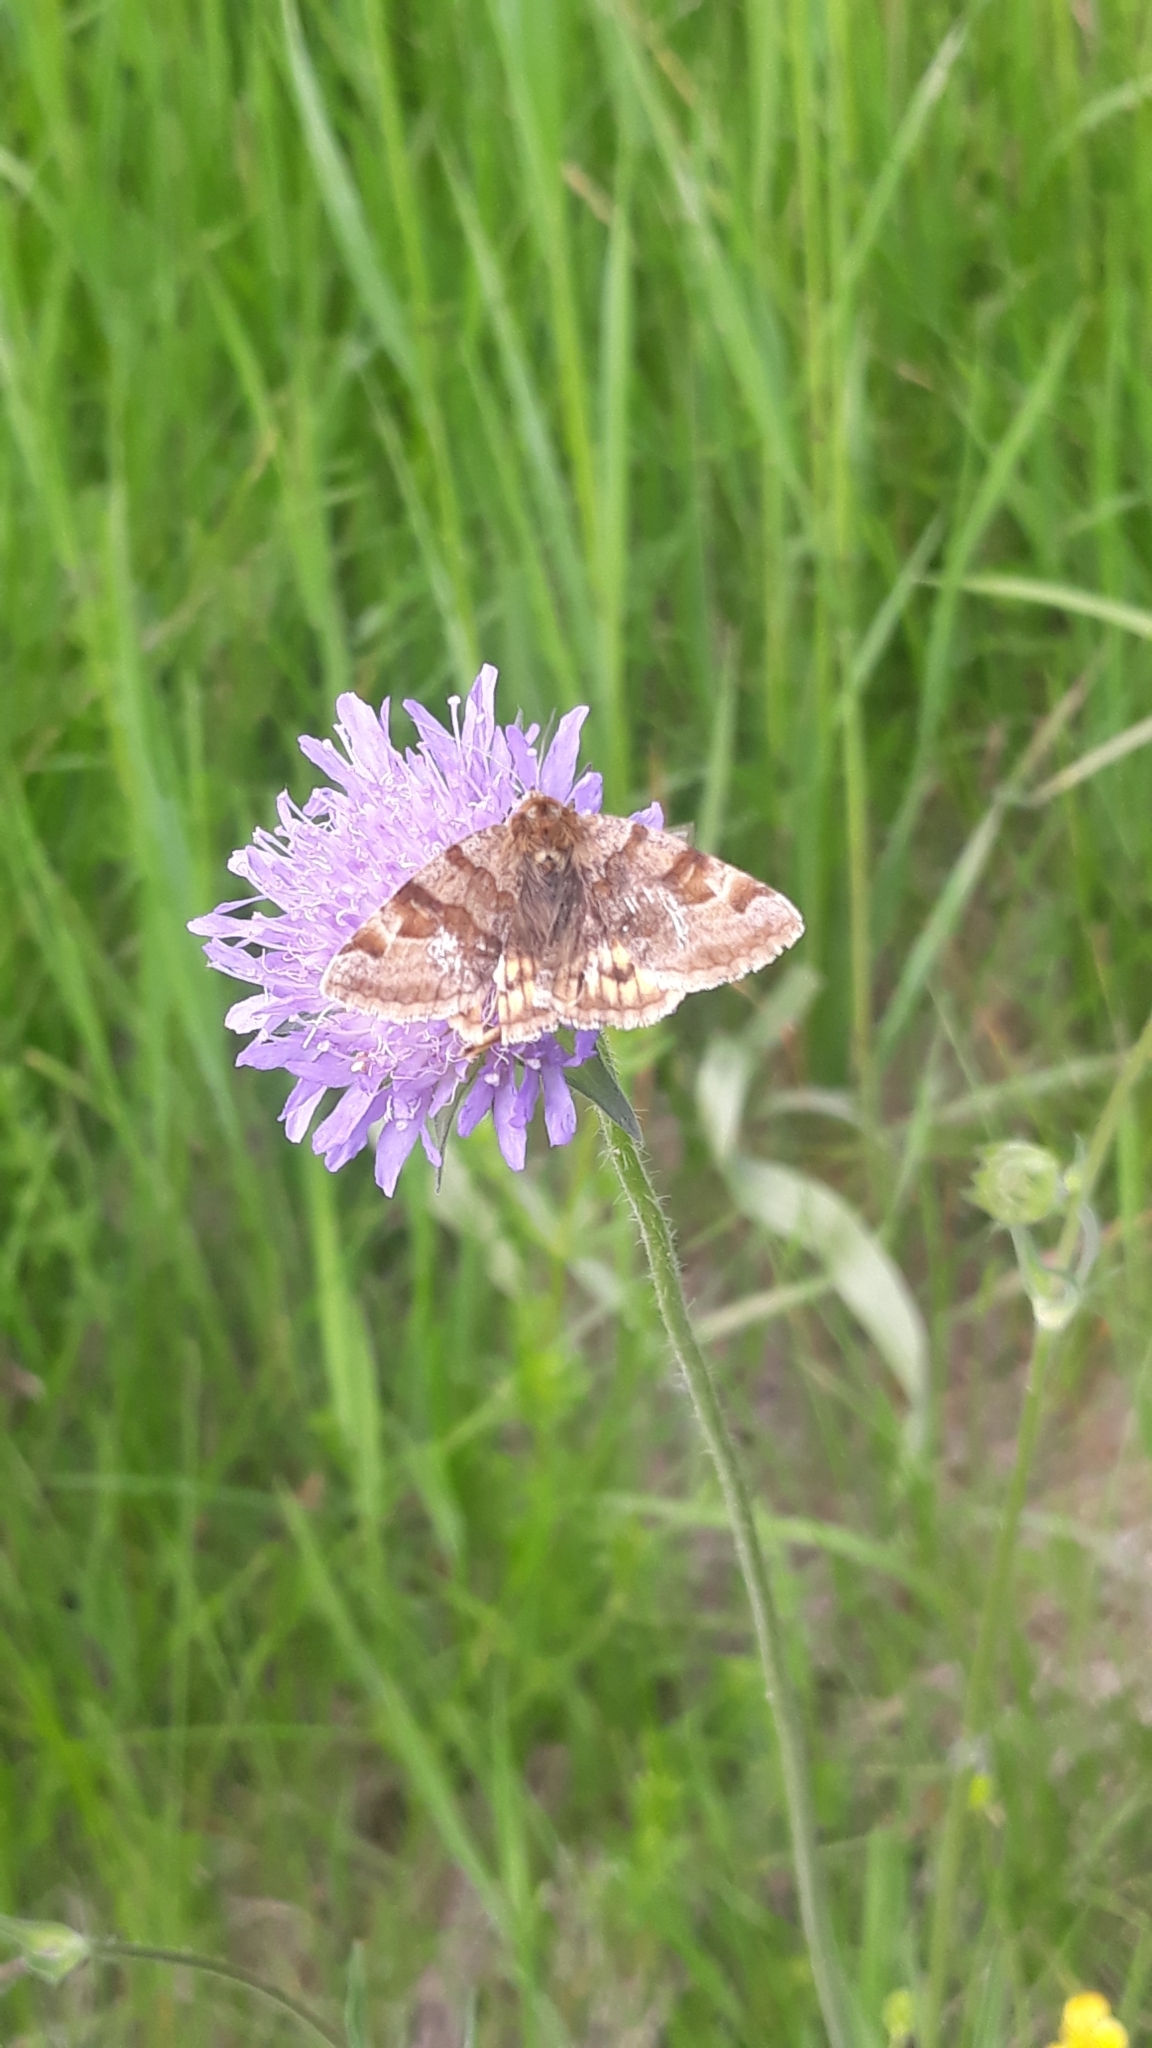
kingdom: Animalia
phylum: Arthropoda
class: Insecta
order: Lepidoptera
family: Erebidae
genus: Euclidia
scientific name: Euclidia glyphica
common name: Burnet companion
